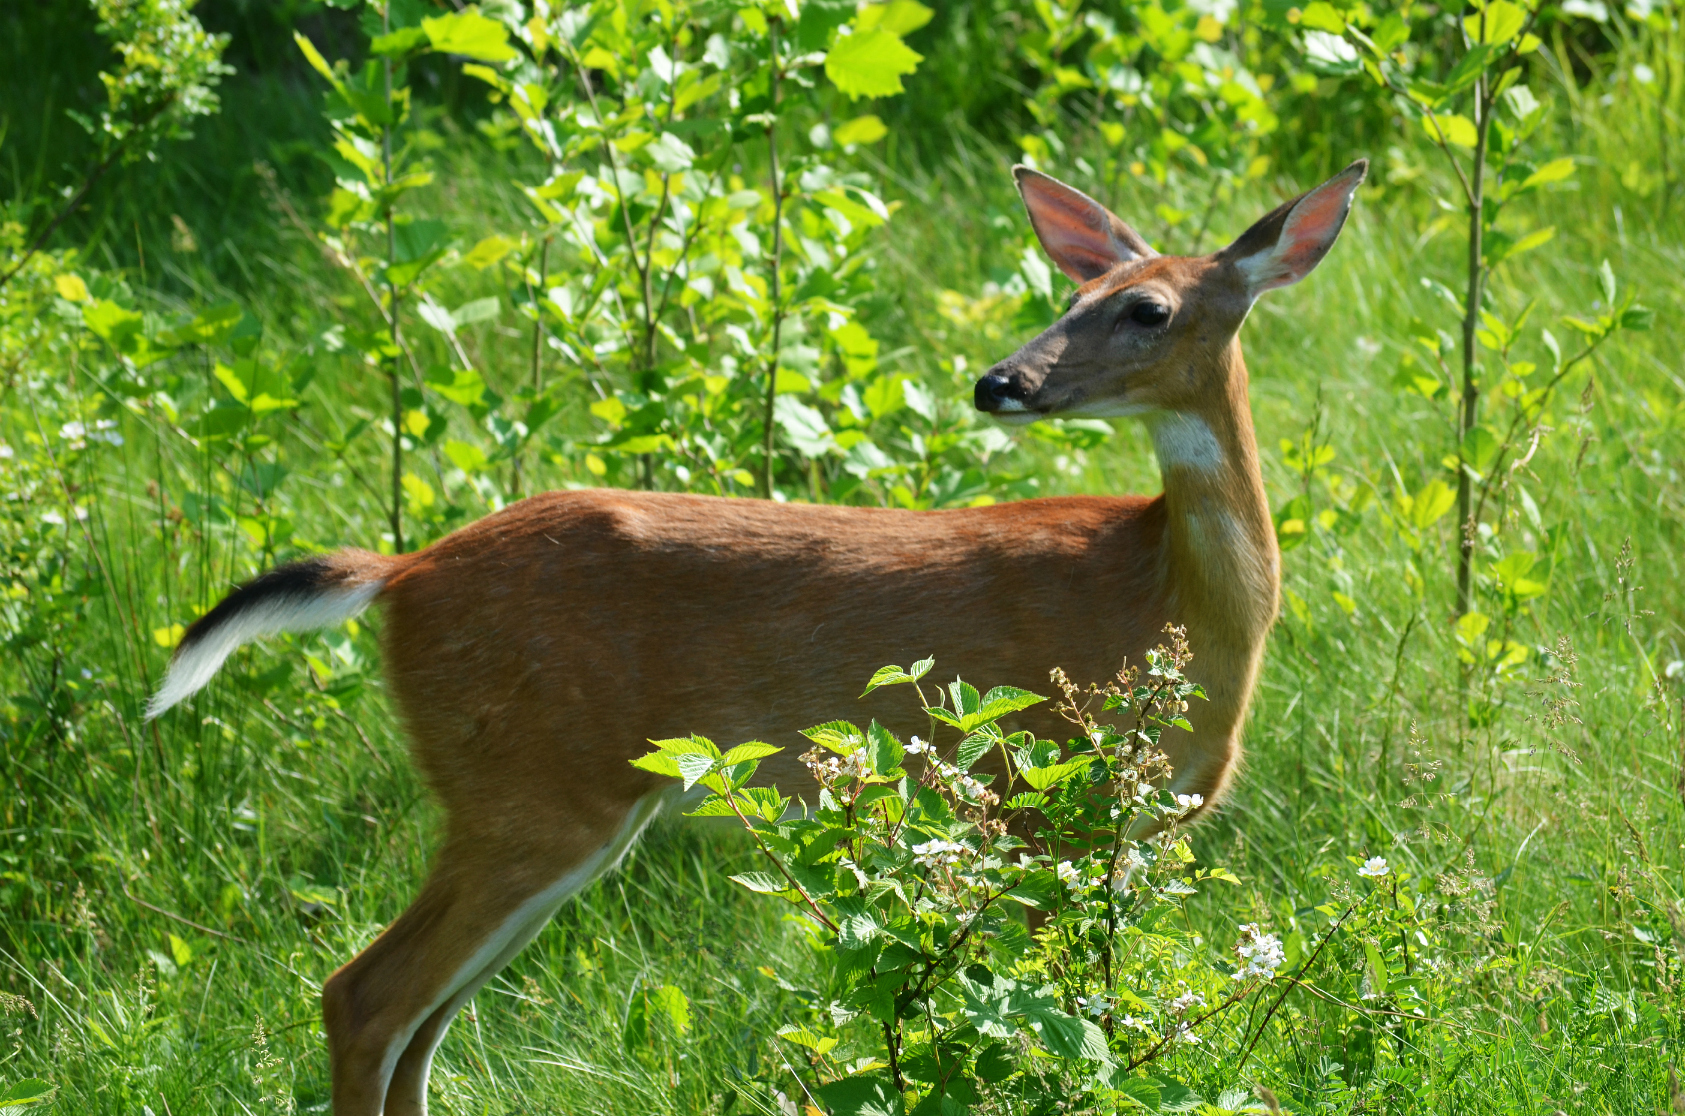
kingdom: Animalia
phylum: Chordata
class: Mammalia
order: Artiodactyla
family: Cervidae
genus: Odocoileus
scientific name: Odocoileus virginianus
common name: White-tailed deer
